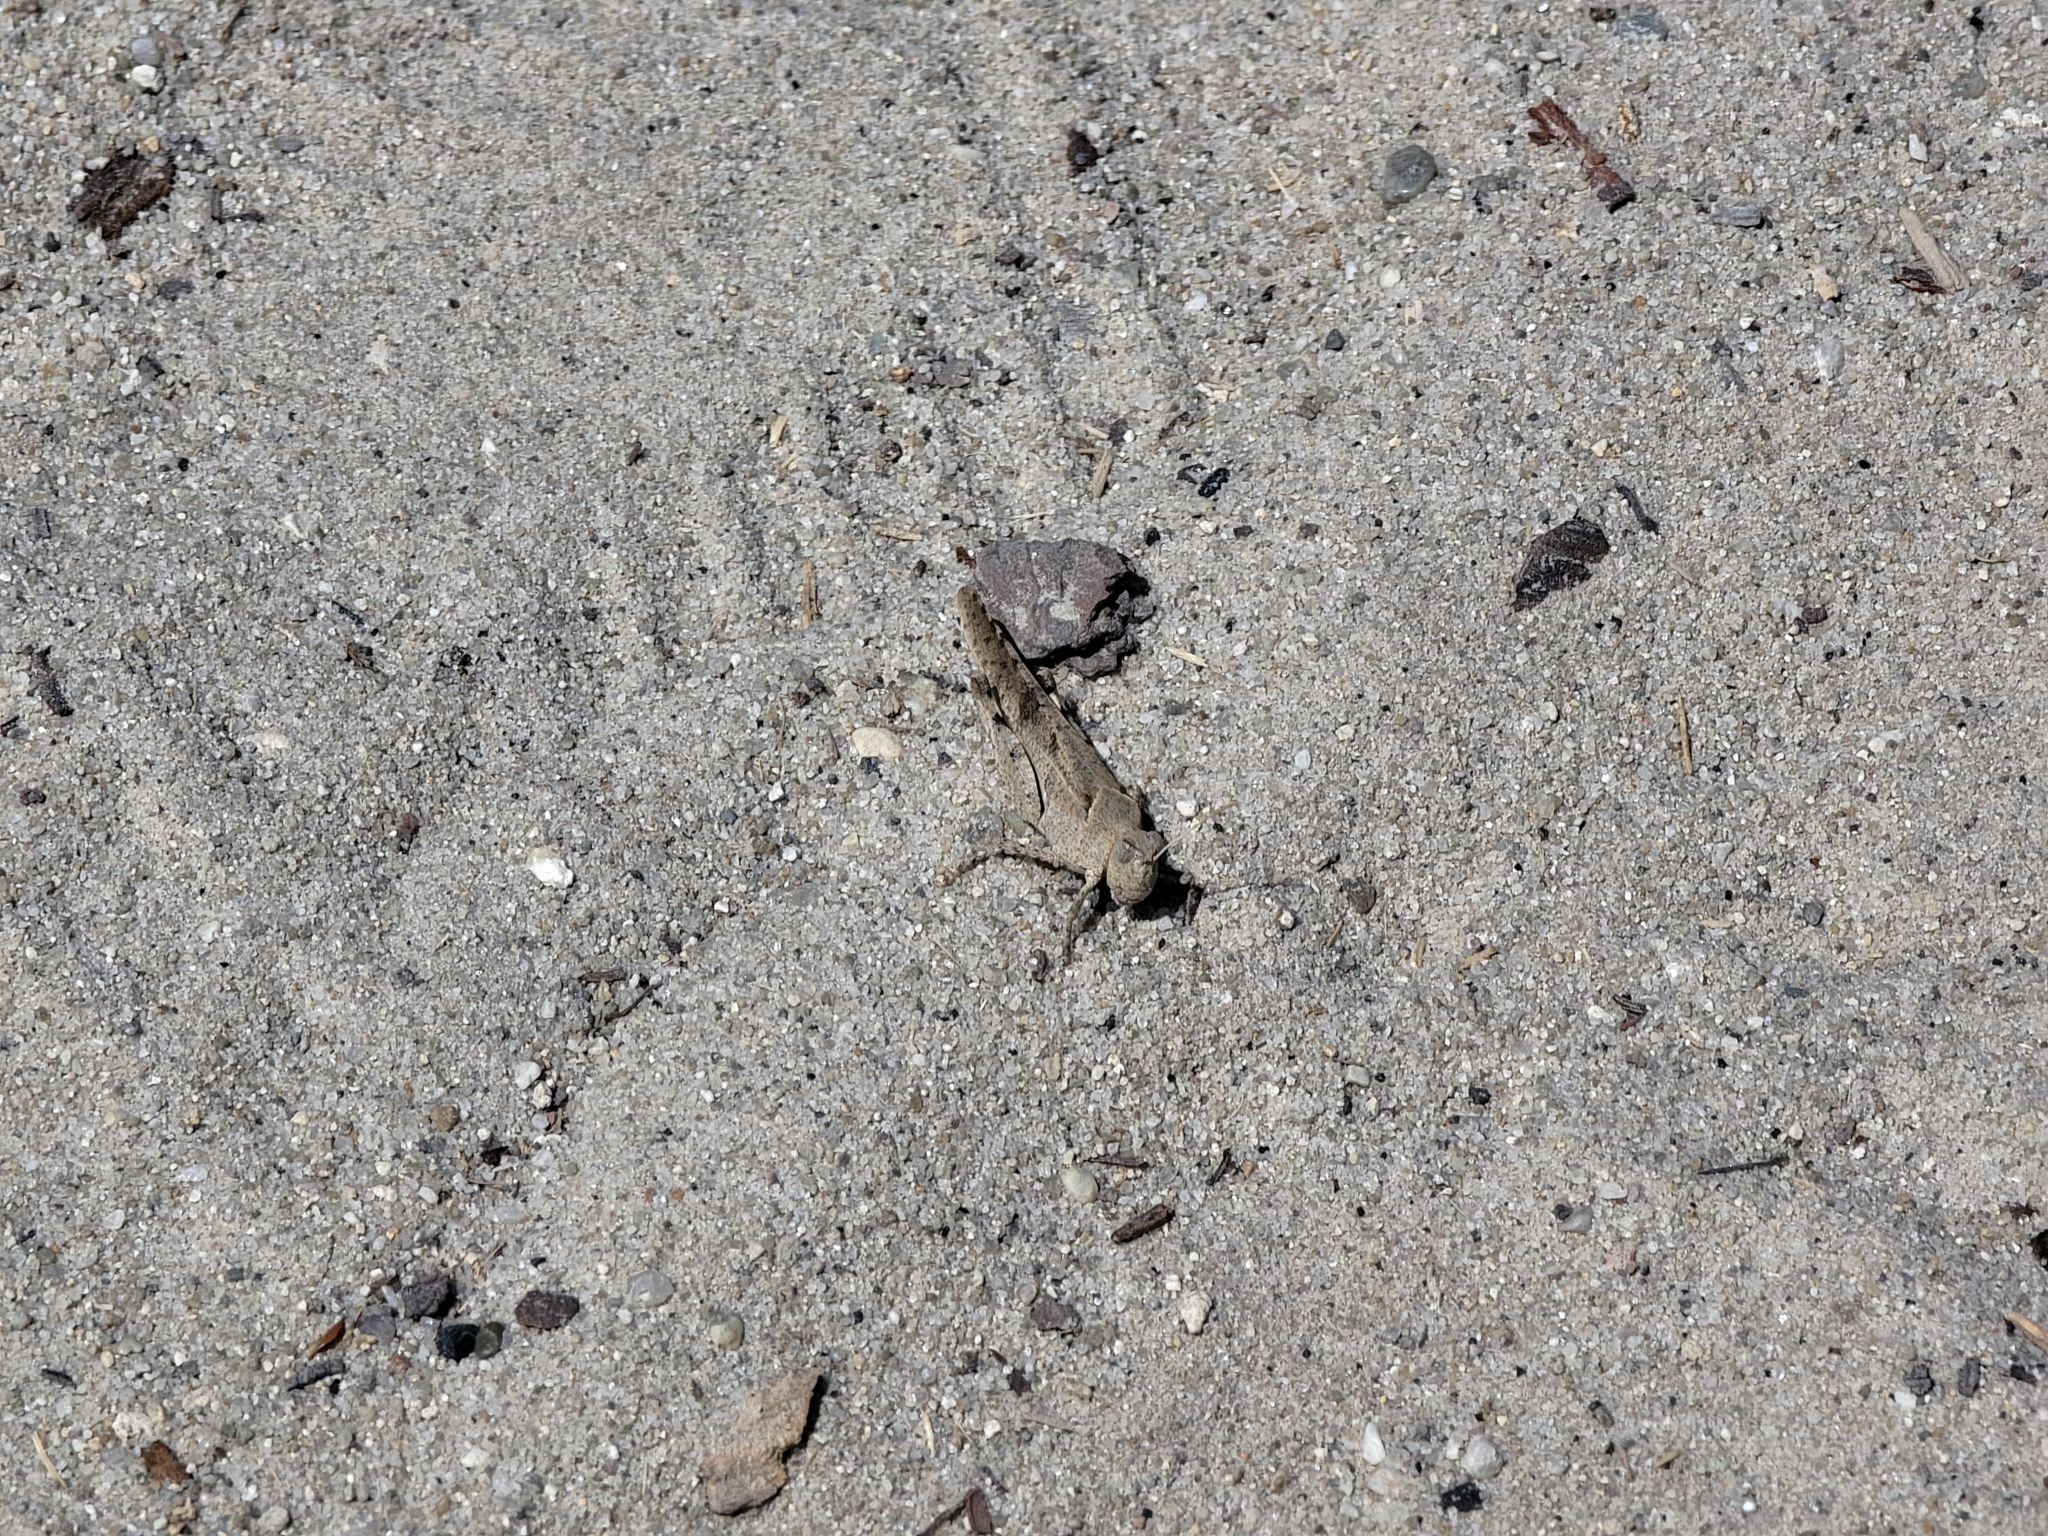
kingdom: Animalia
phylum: Arthropoda
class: Insecta
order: Orthoptera
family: Acrididae
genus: Trimerotropis
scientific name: Trimerotropis thalassica
